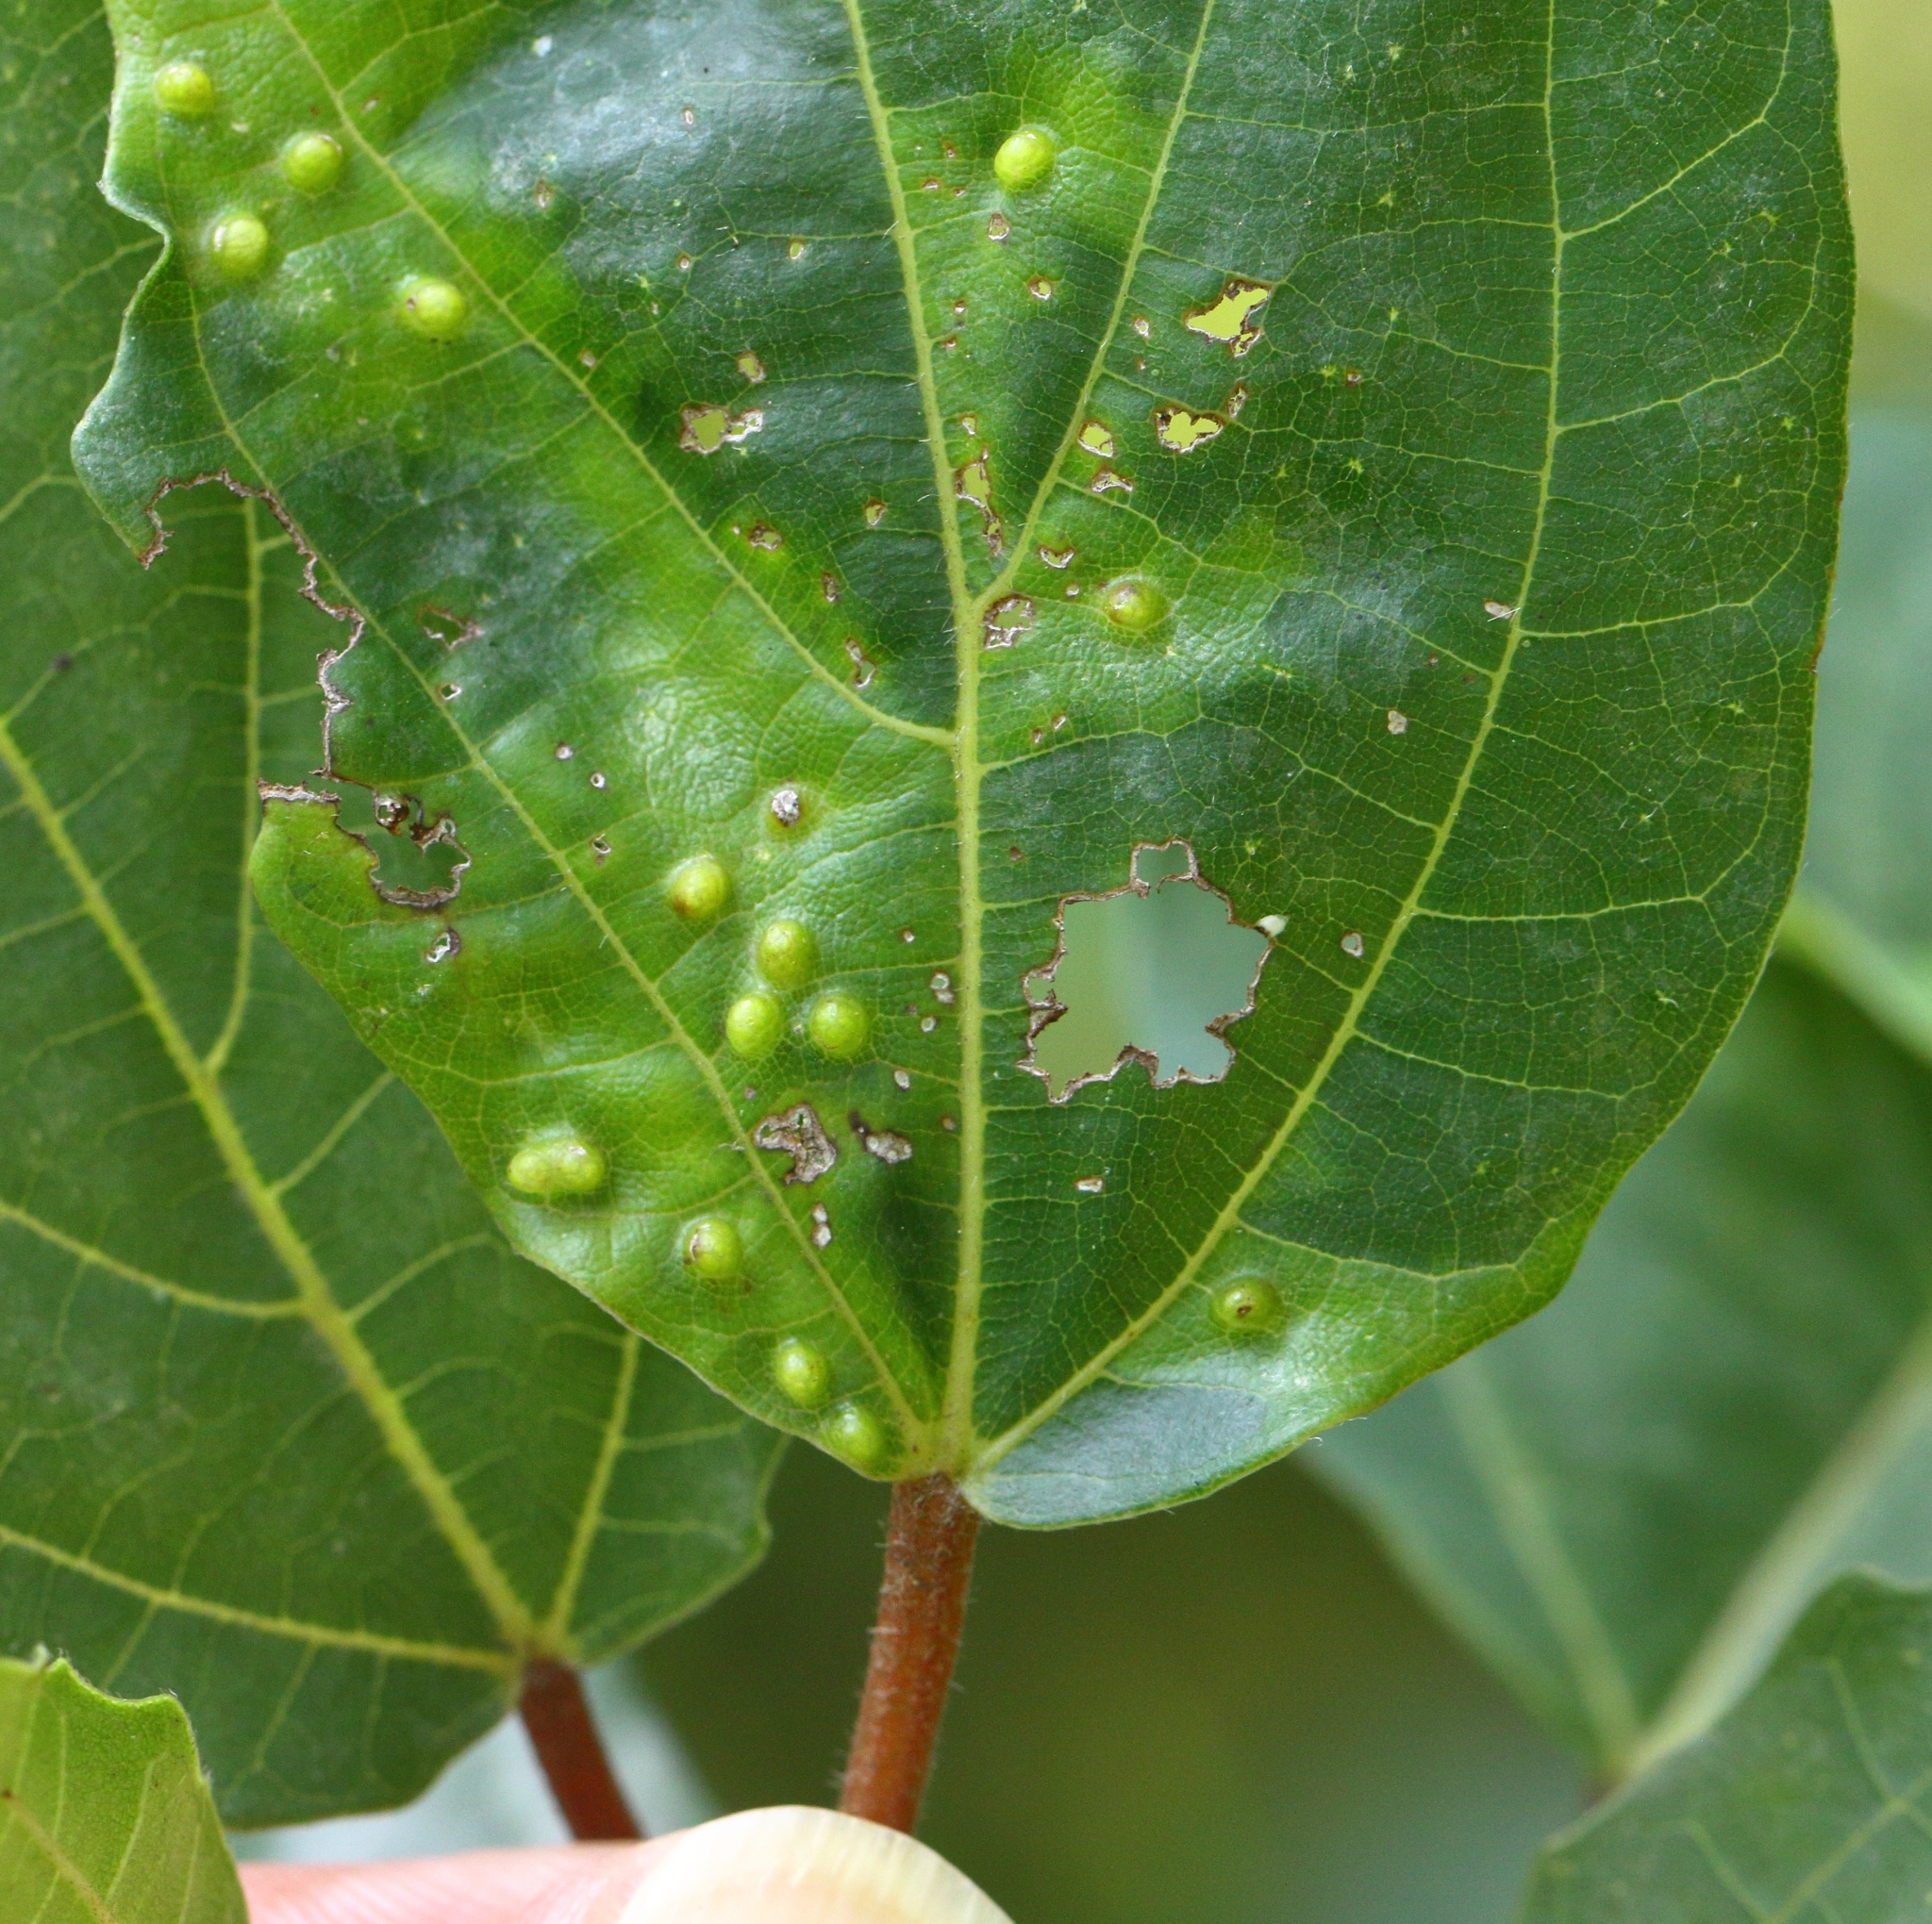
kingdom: Plantae
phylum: Tracheophyta
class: Magnoliopsida
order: Rosales
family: Moraceae
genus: Ficus
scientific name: Ficus sur
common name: Cape fig
